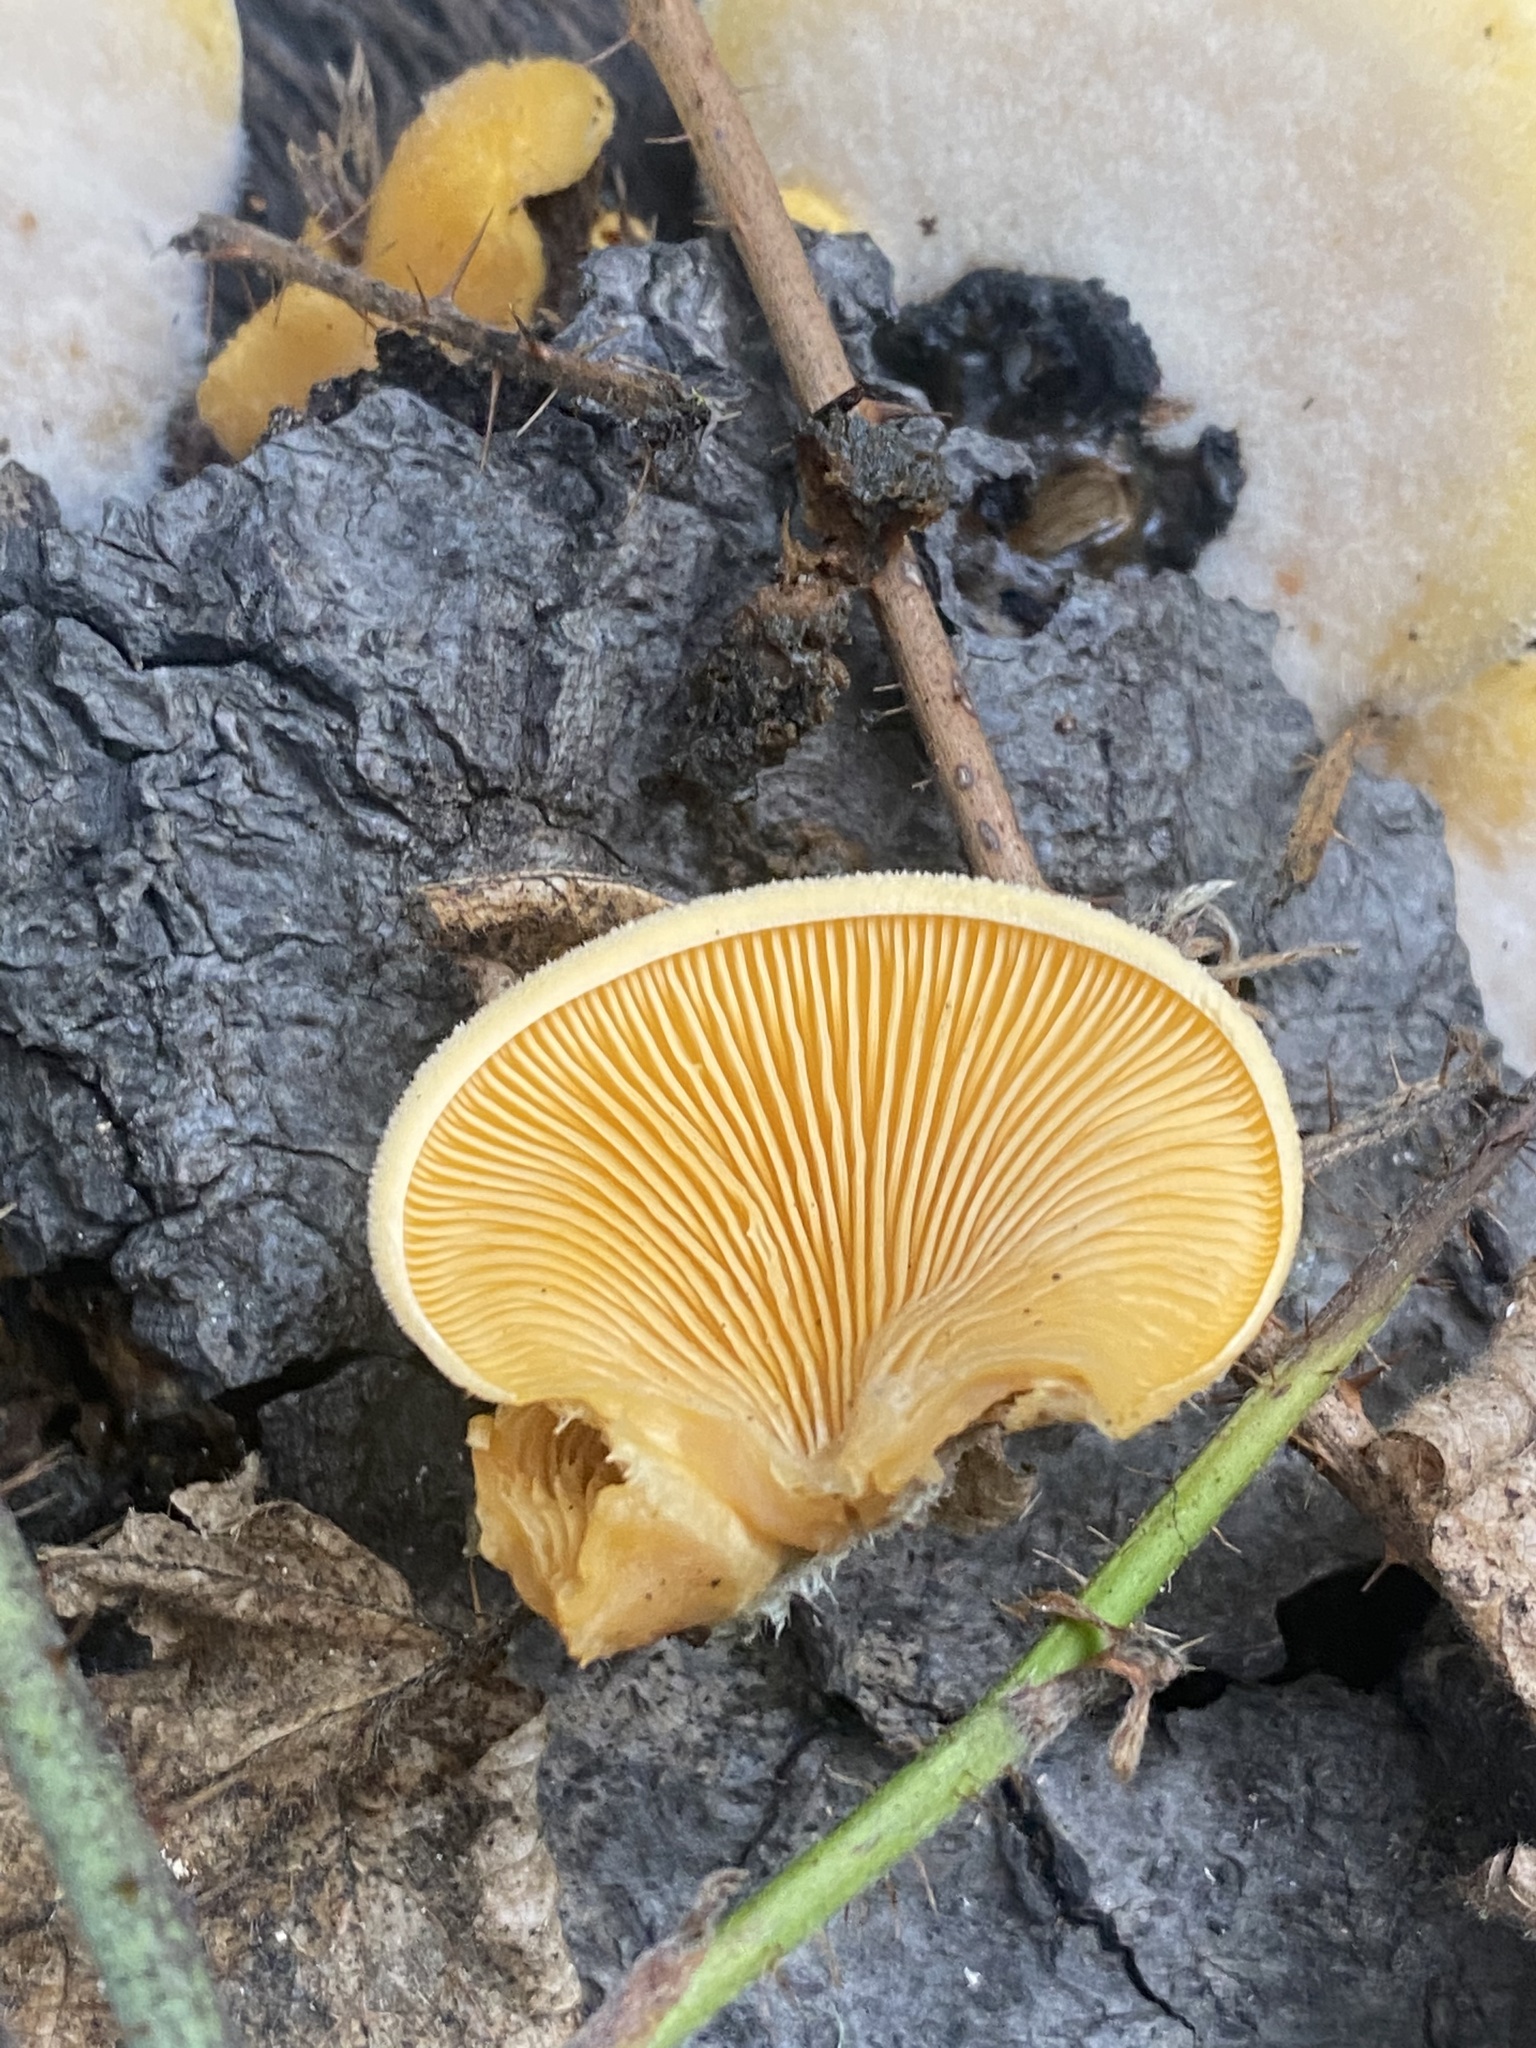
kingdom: Fungi
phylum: Basidiomycota
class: Agaricomycetes
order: Agaricales
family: Phyllotopsidaceae
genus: Phyllotopsis
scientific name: Phyllotopsis nidulans
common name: Orange mock oyster
